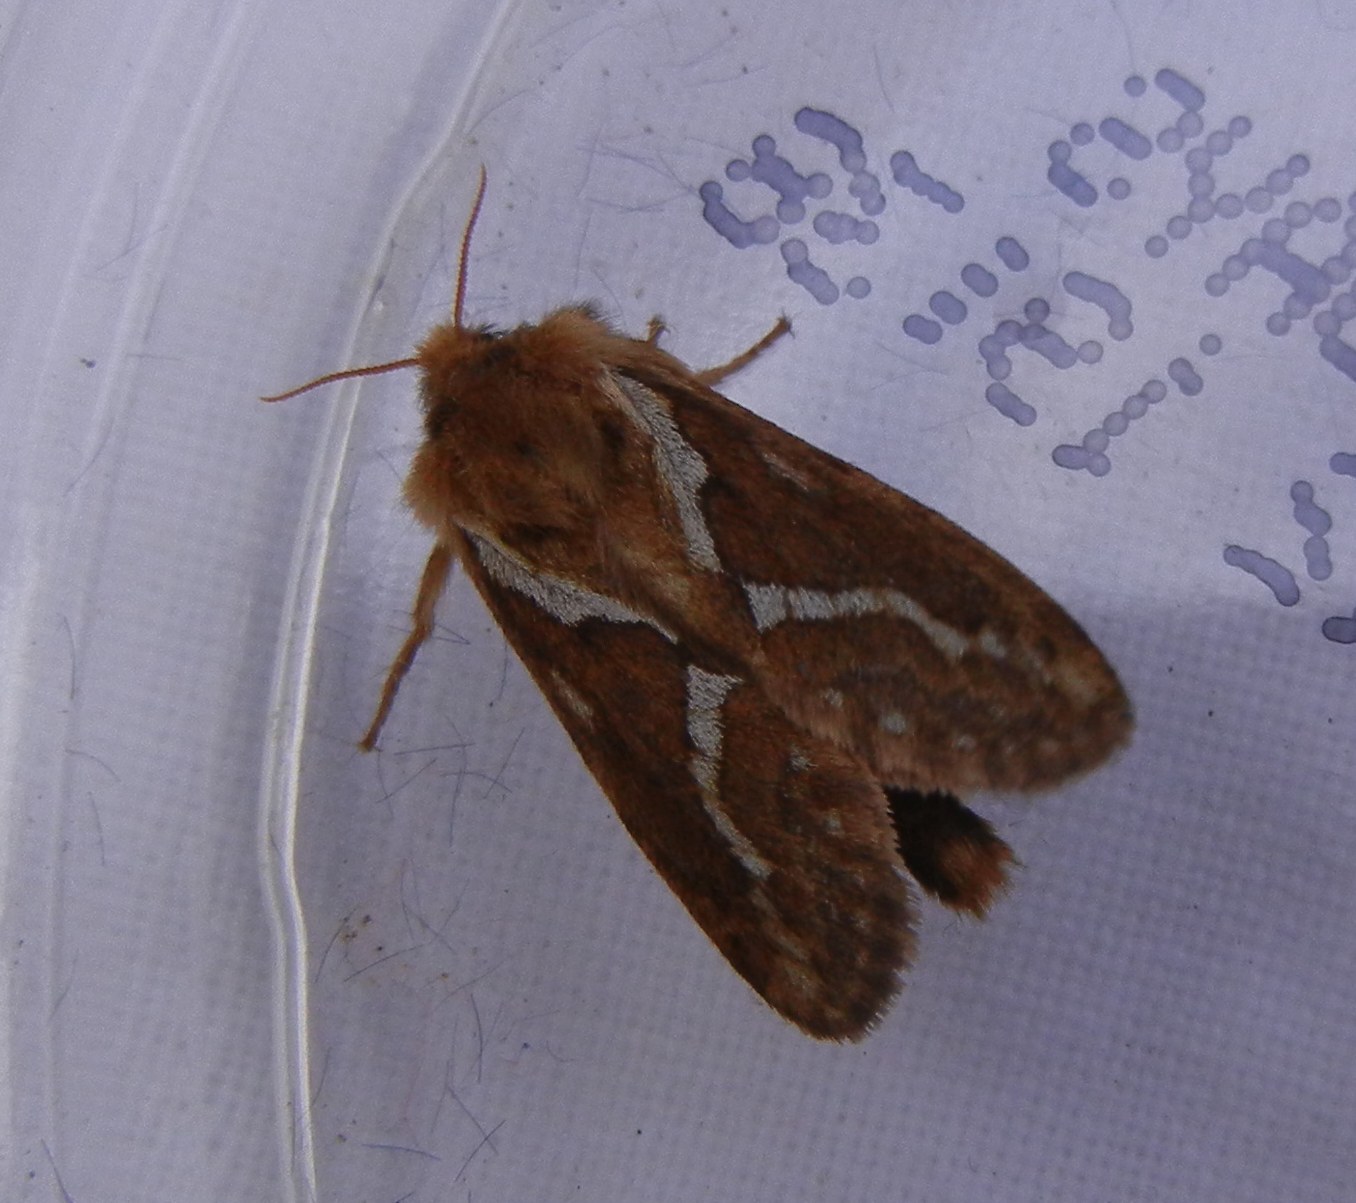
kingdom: Animalia
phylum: Arthropoda
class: Insecta
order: Lepidoptera
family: Hepialidae
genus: Korscheltellus
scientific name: Korscheltellus lupulina
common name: Common swift
